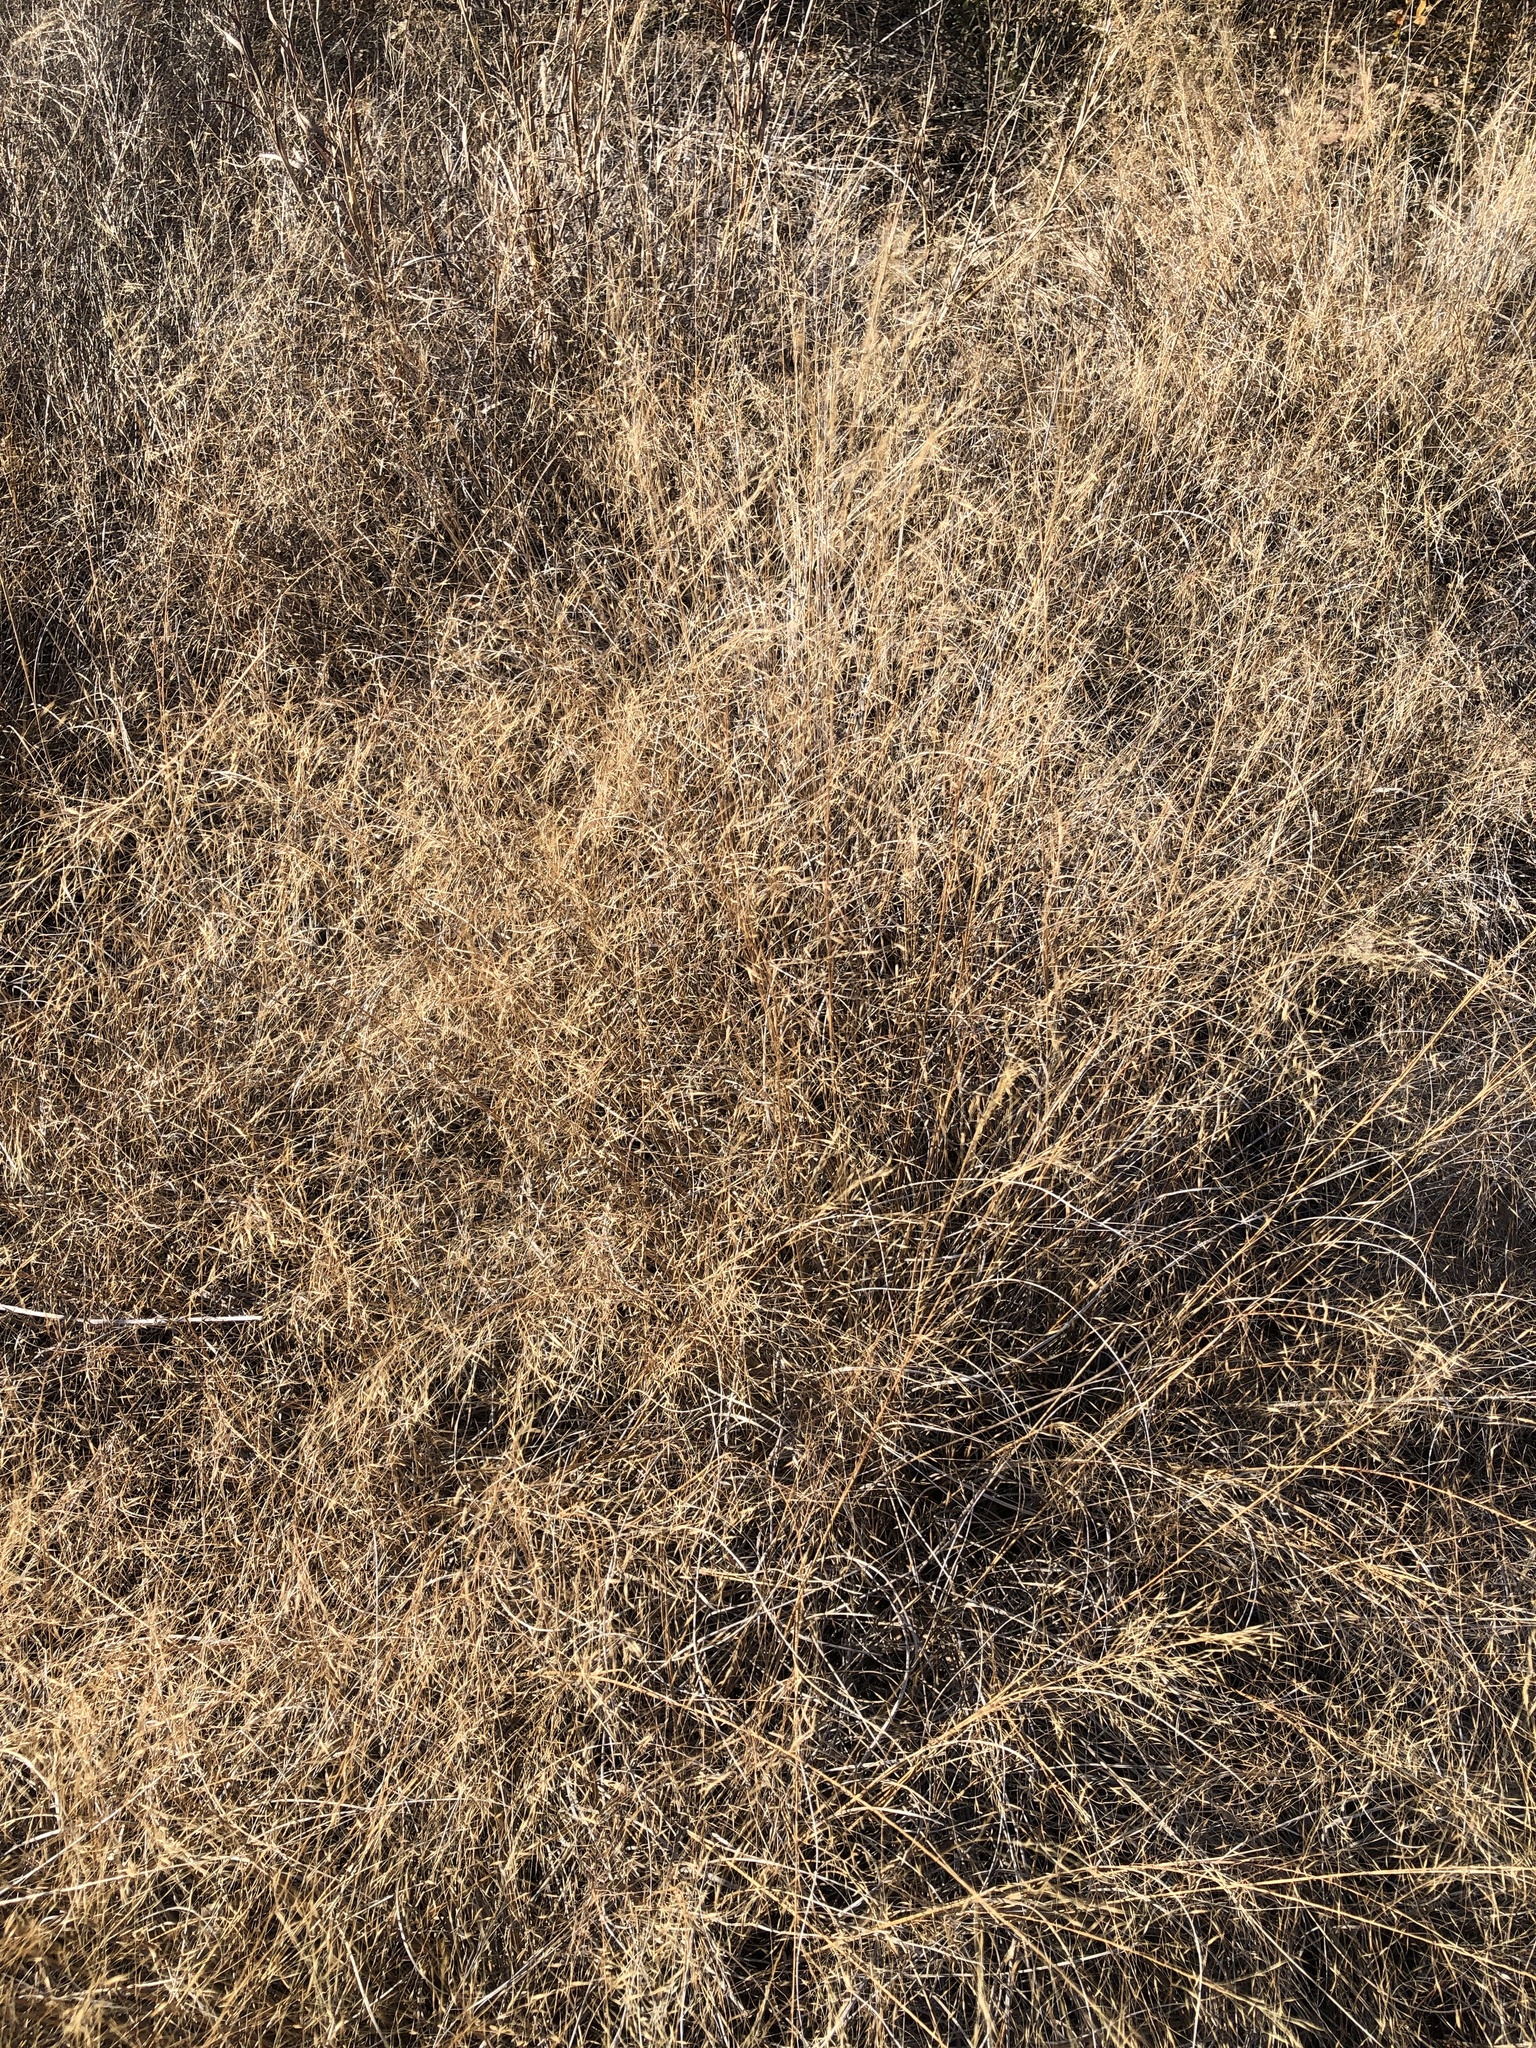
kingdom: Plantae
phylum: Tracheophyta
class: Liliopsida
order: Poales
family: Poaceae
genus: Muhlenbergia
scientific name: Muhlenbergia reverchonii
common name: Seep muhly
